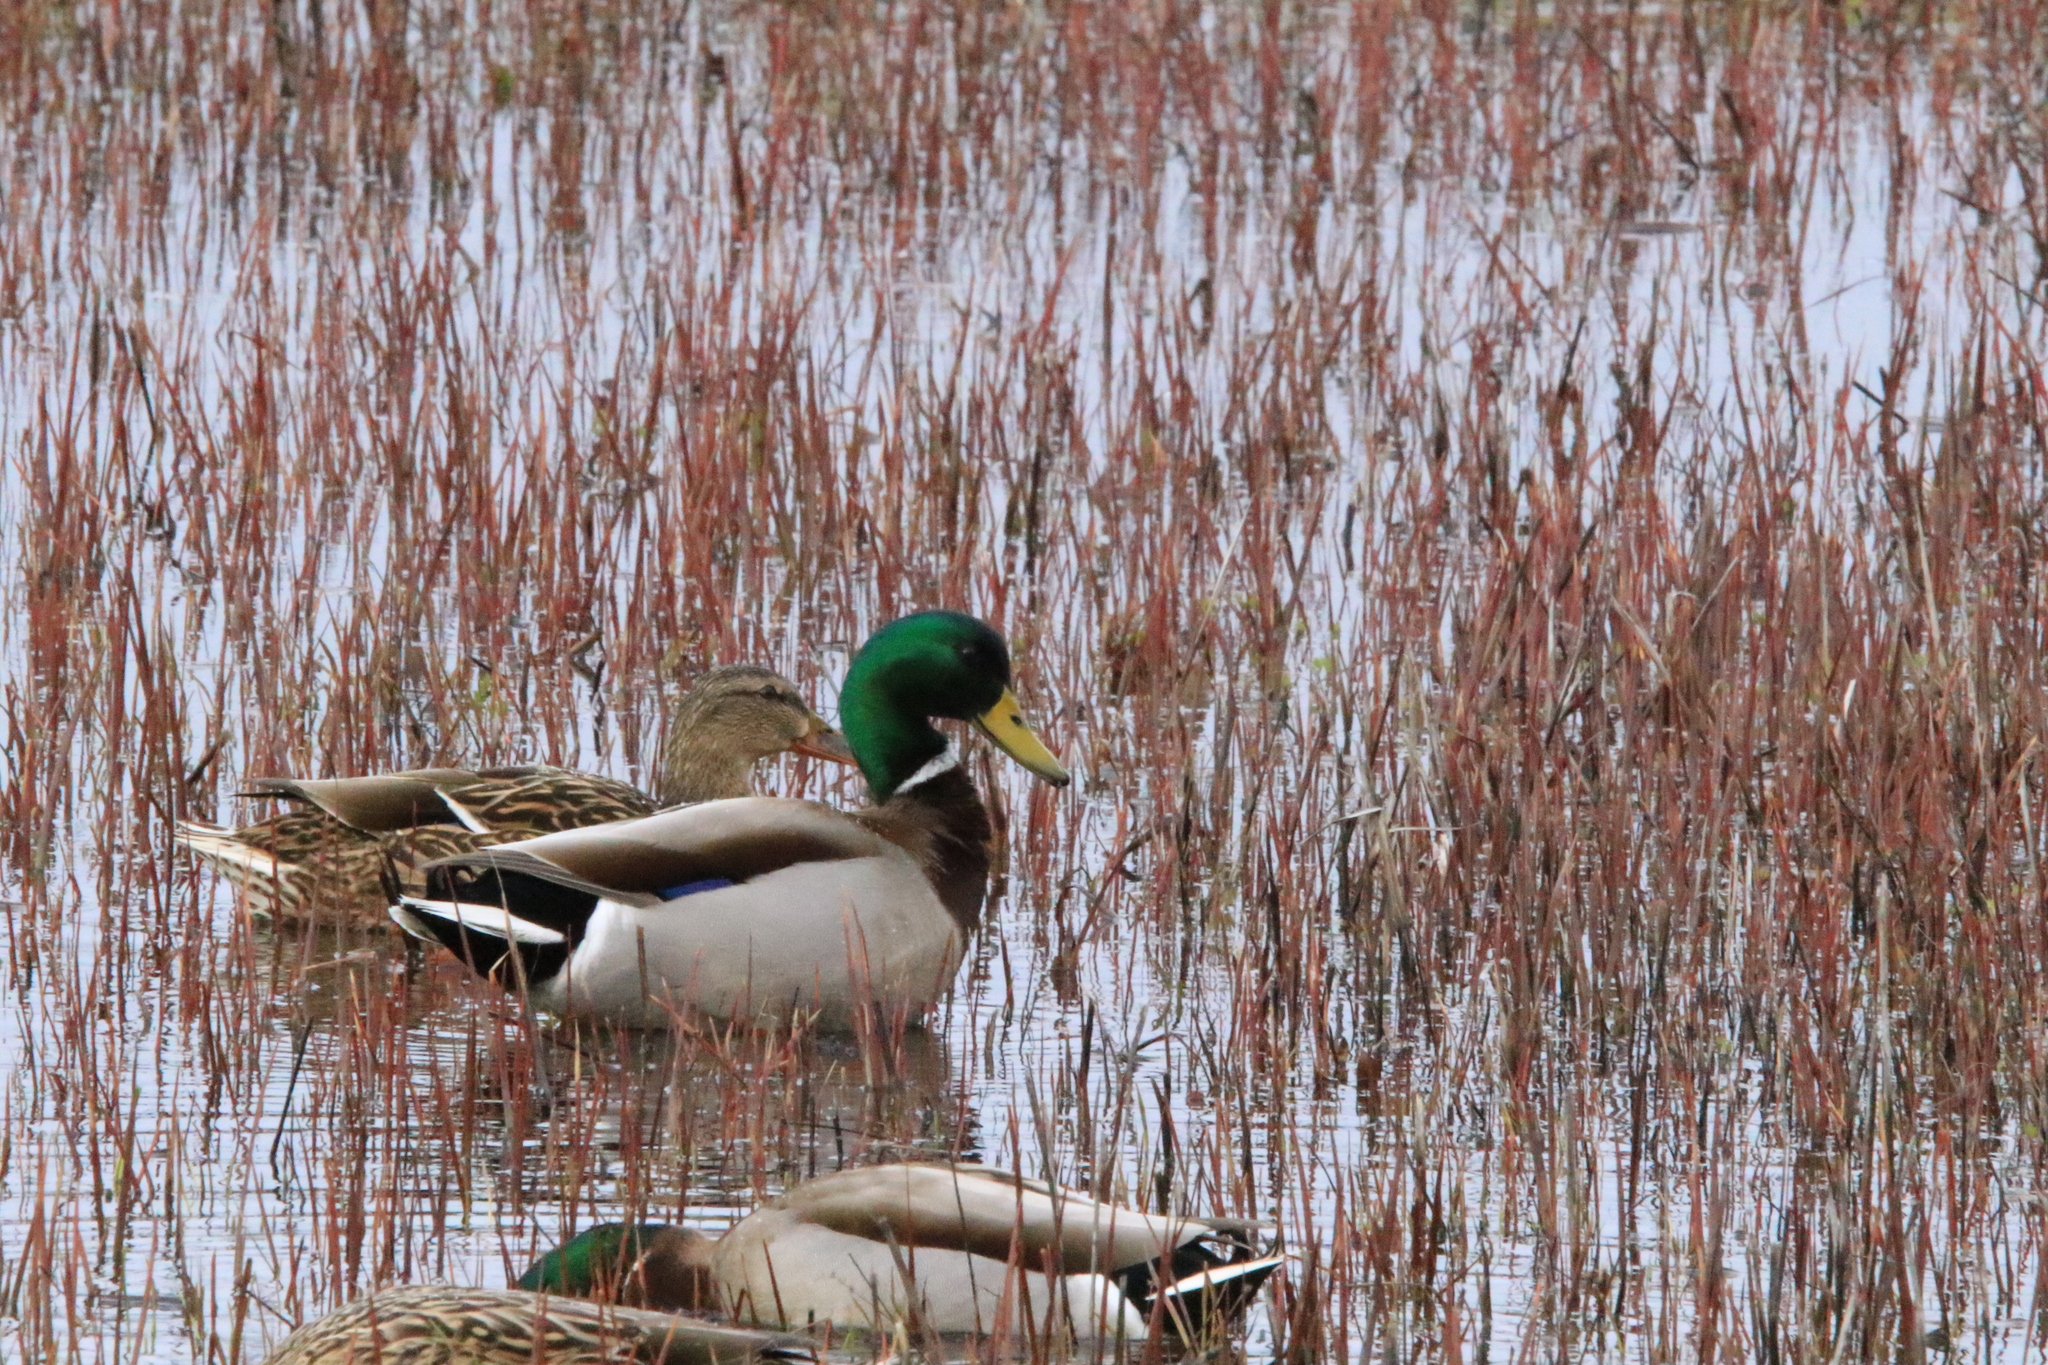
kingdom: Animalia
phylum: Chordata
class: Aves
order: Anseriformes
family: Anatidae
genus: Anas
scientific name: Anas platyrhynchos
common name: Mallard
